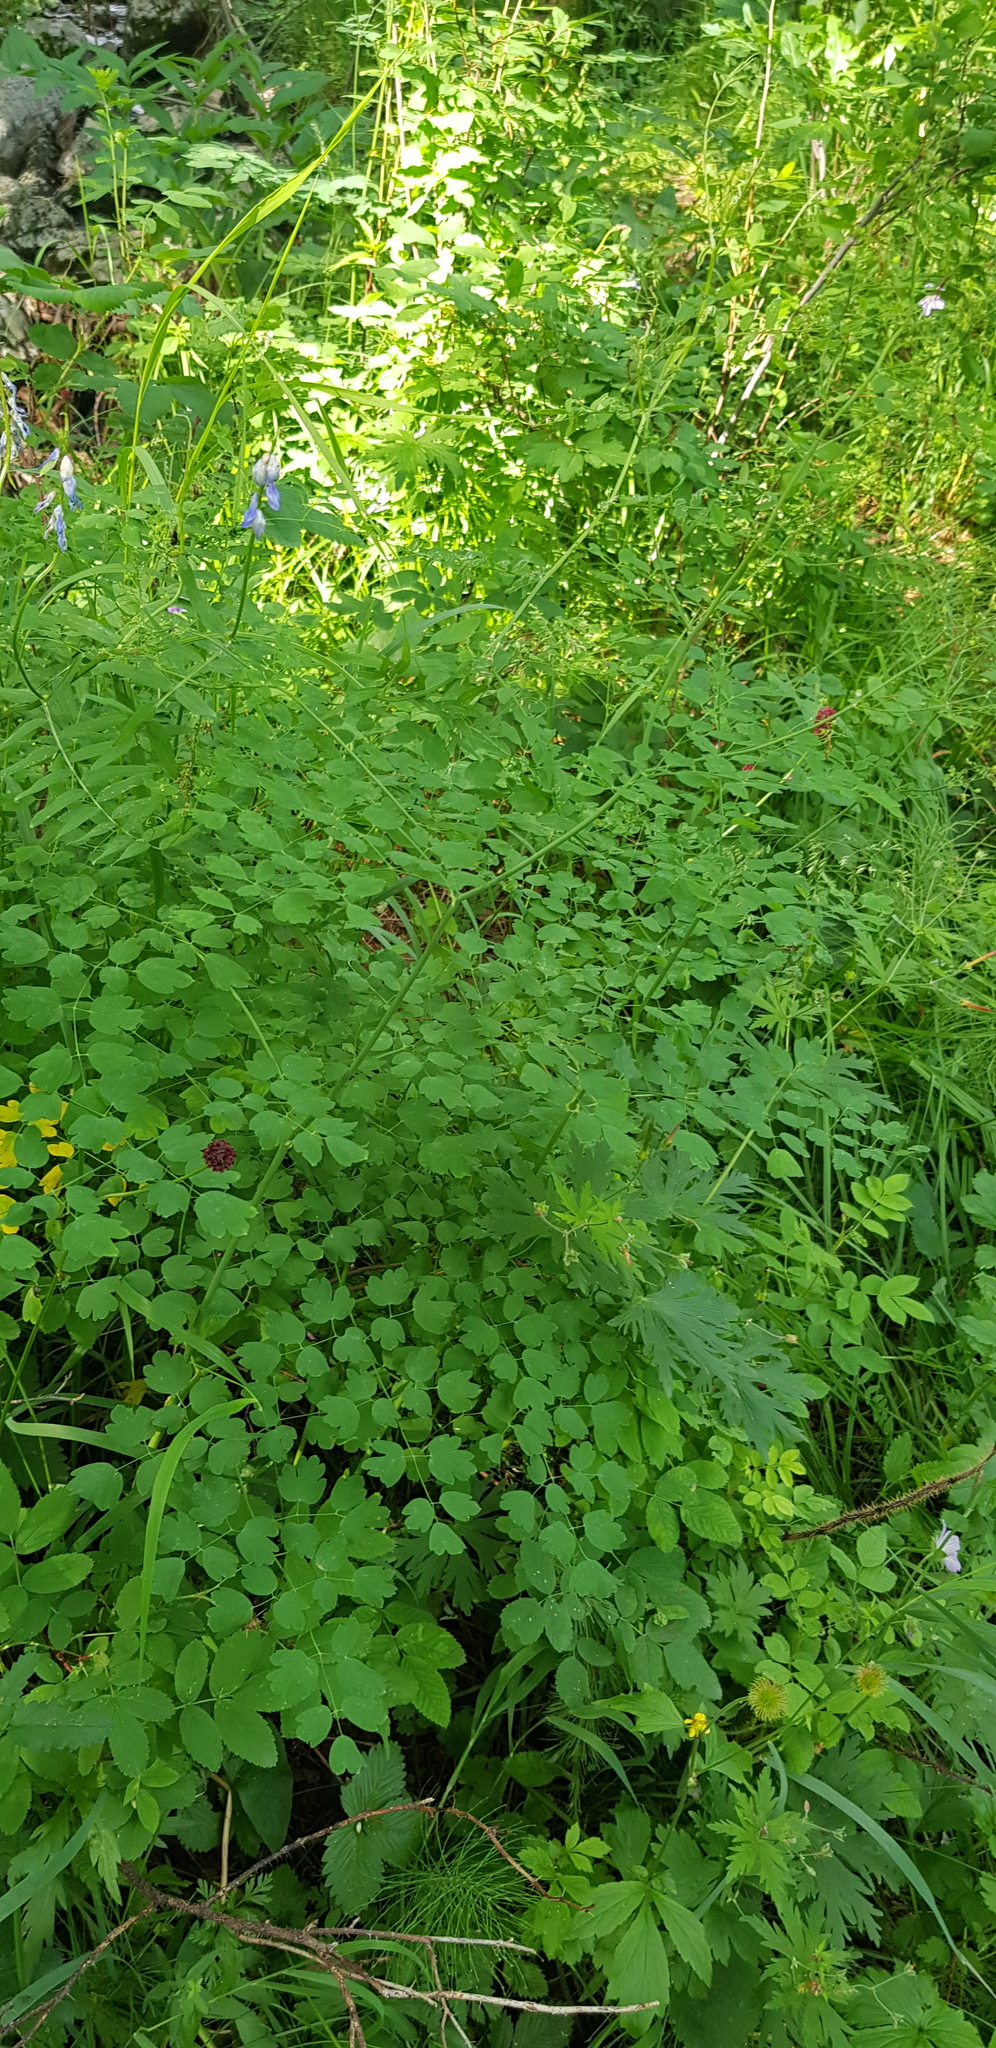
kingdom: Plantae
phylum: Tracheophyta
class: Magnoliopsida
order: Ranunculales
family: Ranunculaceae
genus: Thalictrum
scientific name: Thalictrum foetidum
